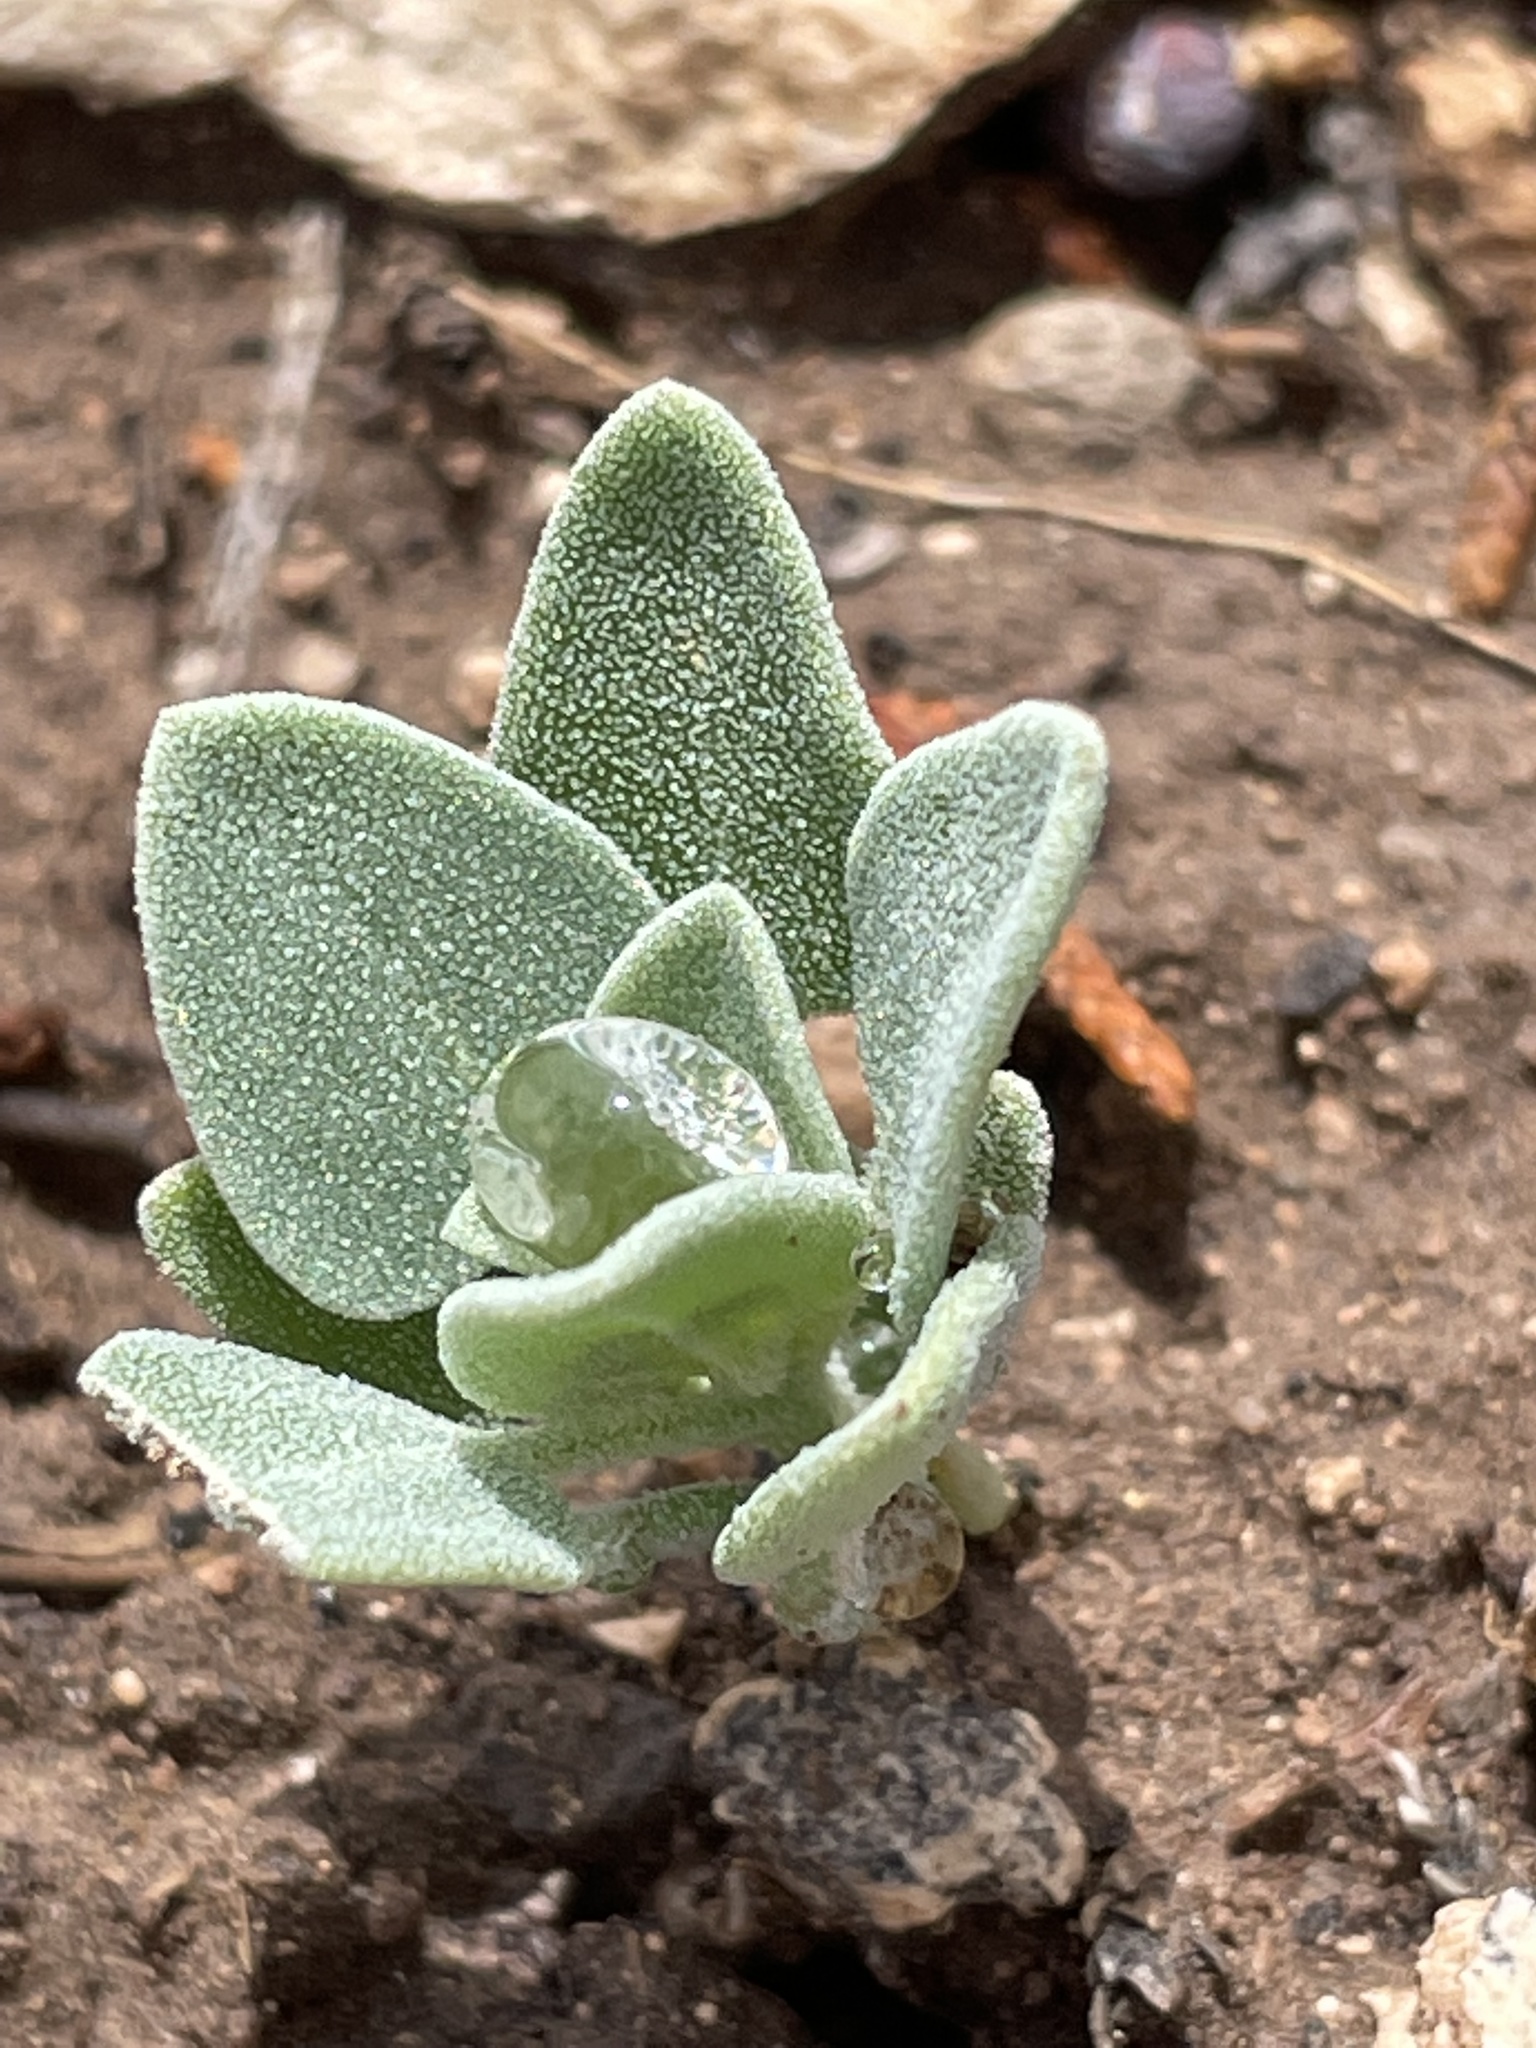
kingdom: Plantae
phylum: Tracheophyta
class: Magnoliopsida
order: Caryophyllales
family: Amaranthaceae
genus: Chenopodium
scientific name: Chenopodium incanum
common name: Hoary goosefoot
